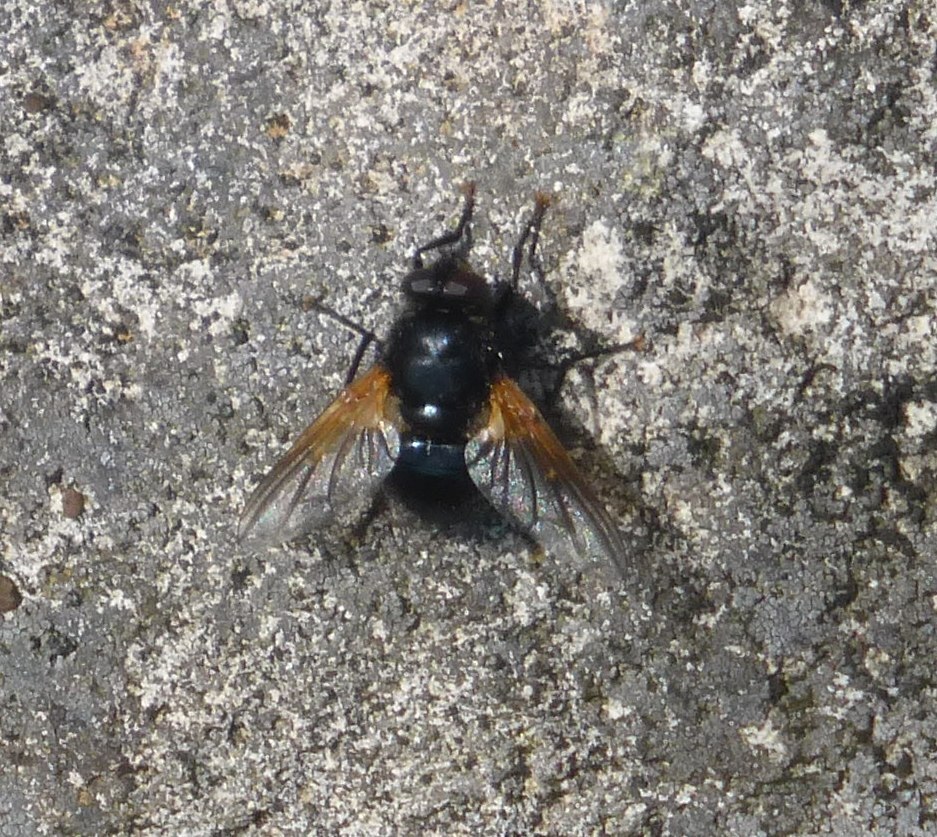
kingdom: Animalia
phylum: Arthropoda
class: Insecta
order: Diptera
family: Muscidae
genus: Mesembrina
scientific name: Mesembrina meridiana
